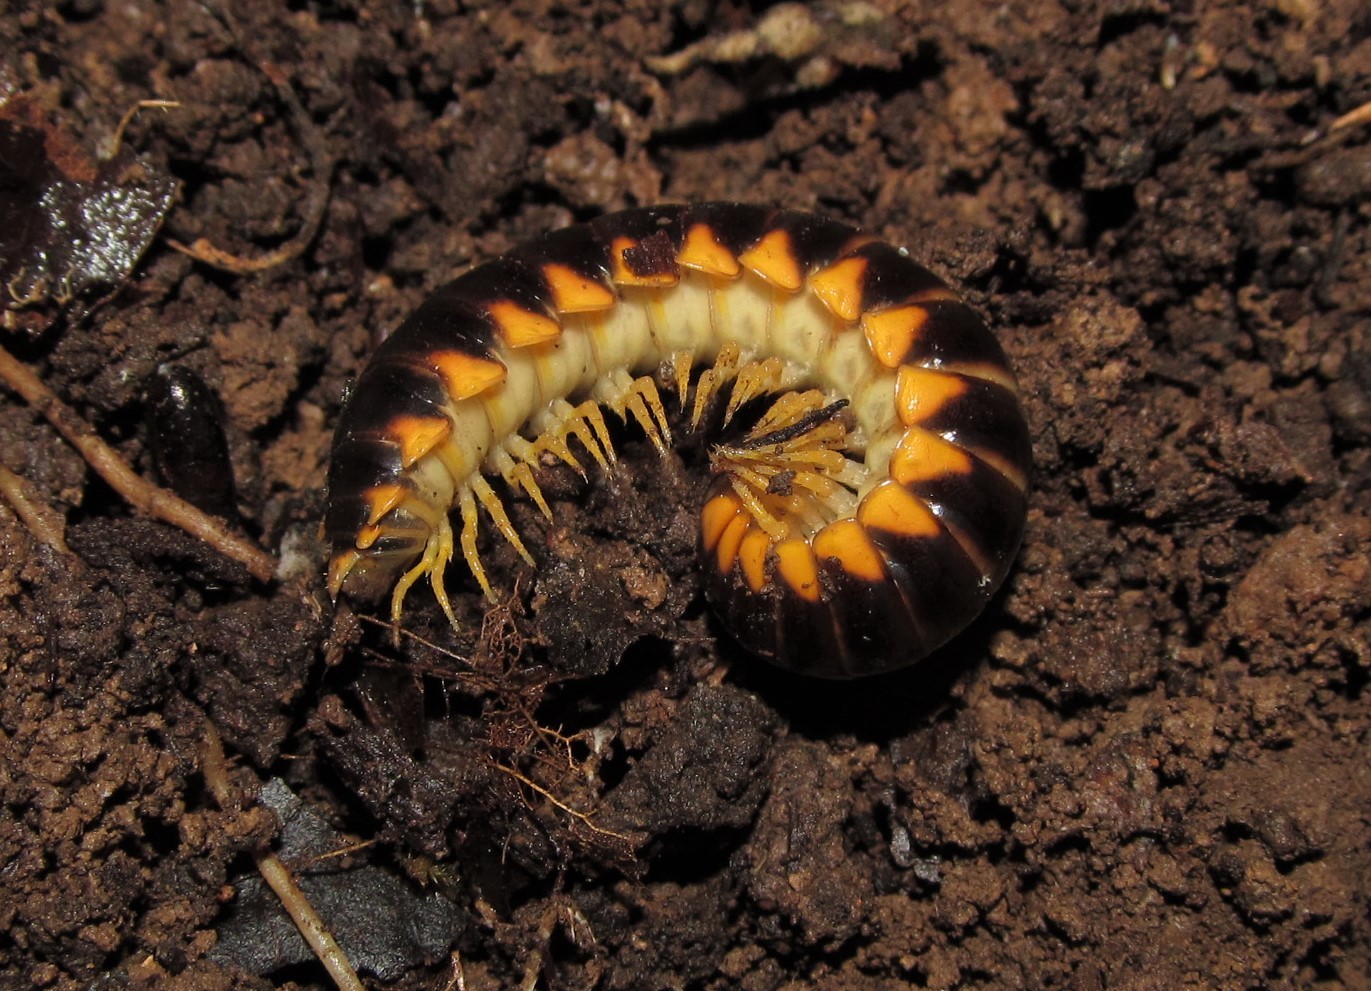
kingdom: Animalia
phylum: Arthropoda
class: Diplopoda
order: Polydesmida
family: Xystodesmidae
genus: Brachoria
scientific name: Brachoria glendalea
